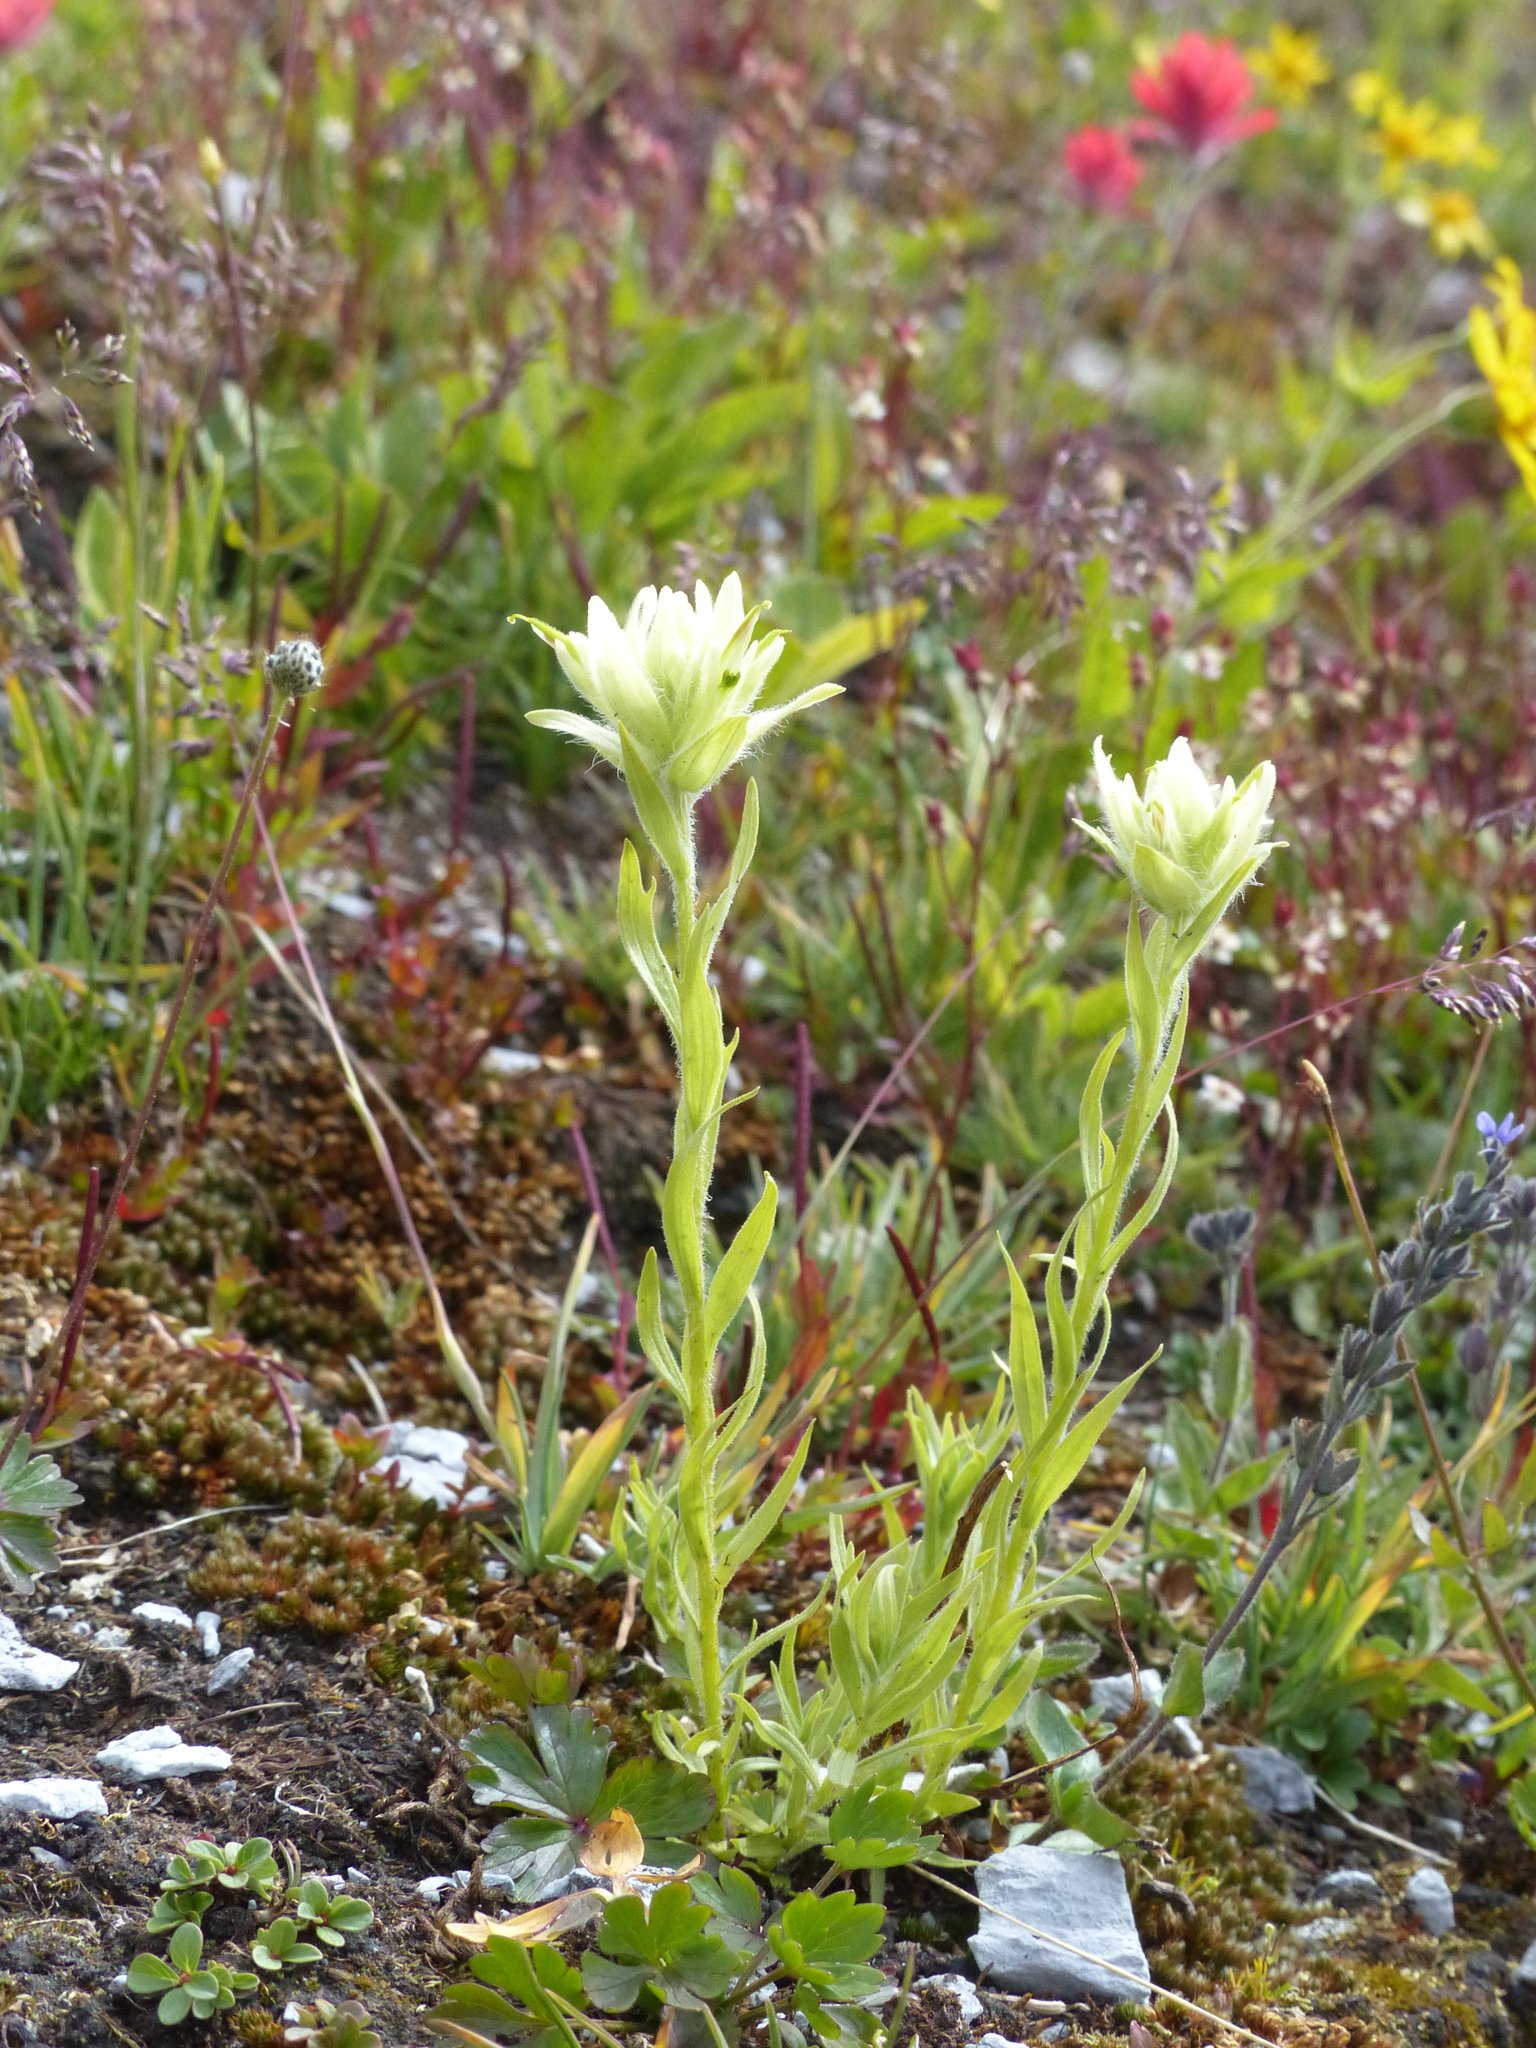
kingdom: Plantae
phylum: Tracheophyta
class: Magnoliopsida
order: Lamiales
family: Orobanchaceae
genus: Castilleja
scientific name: Castilleja occidentalis
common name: Western paintbrush
